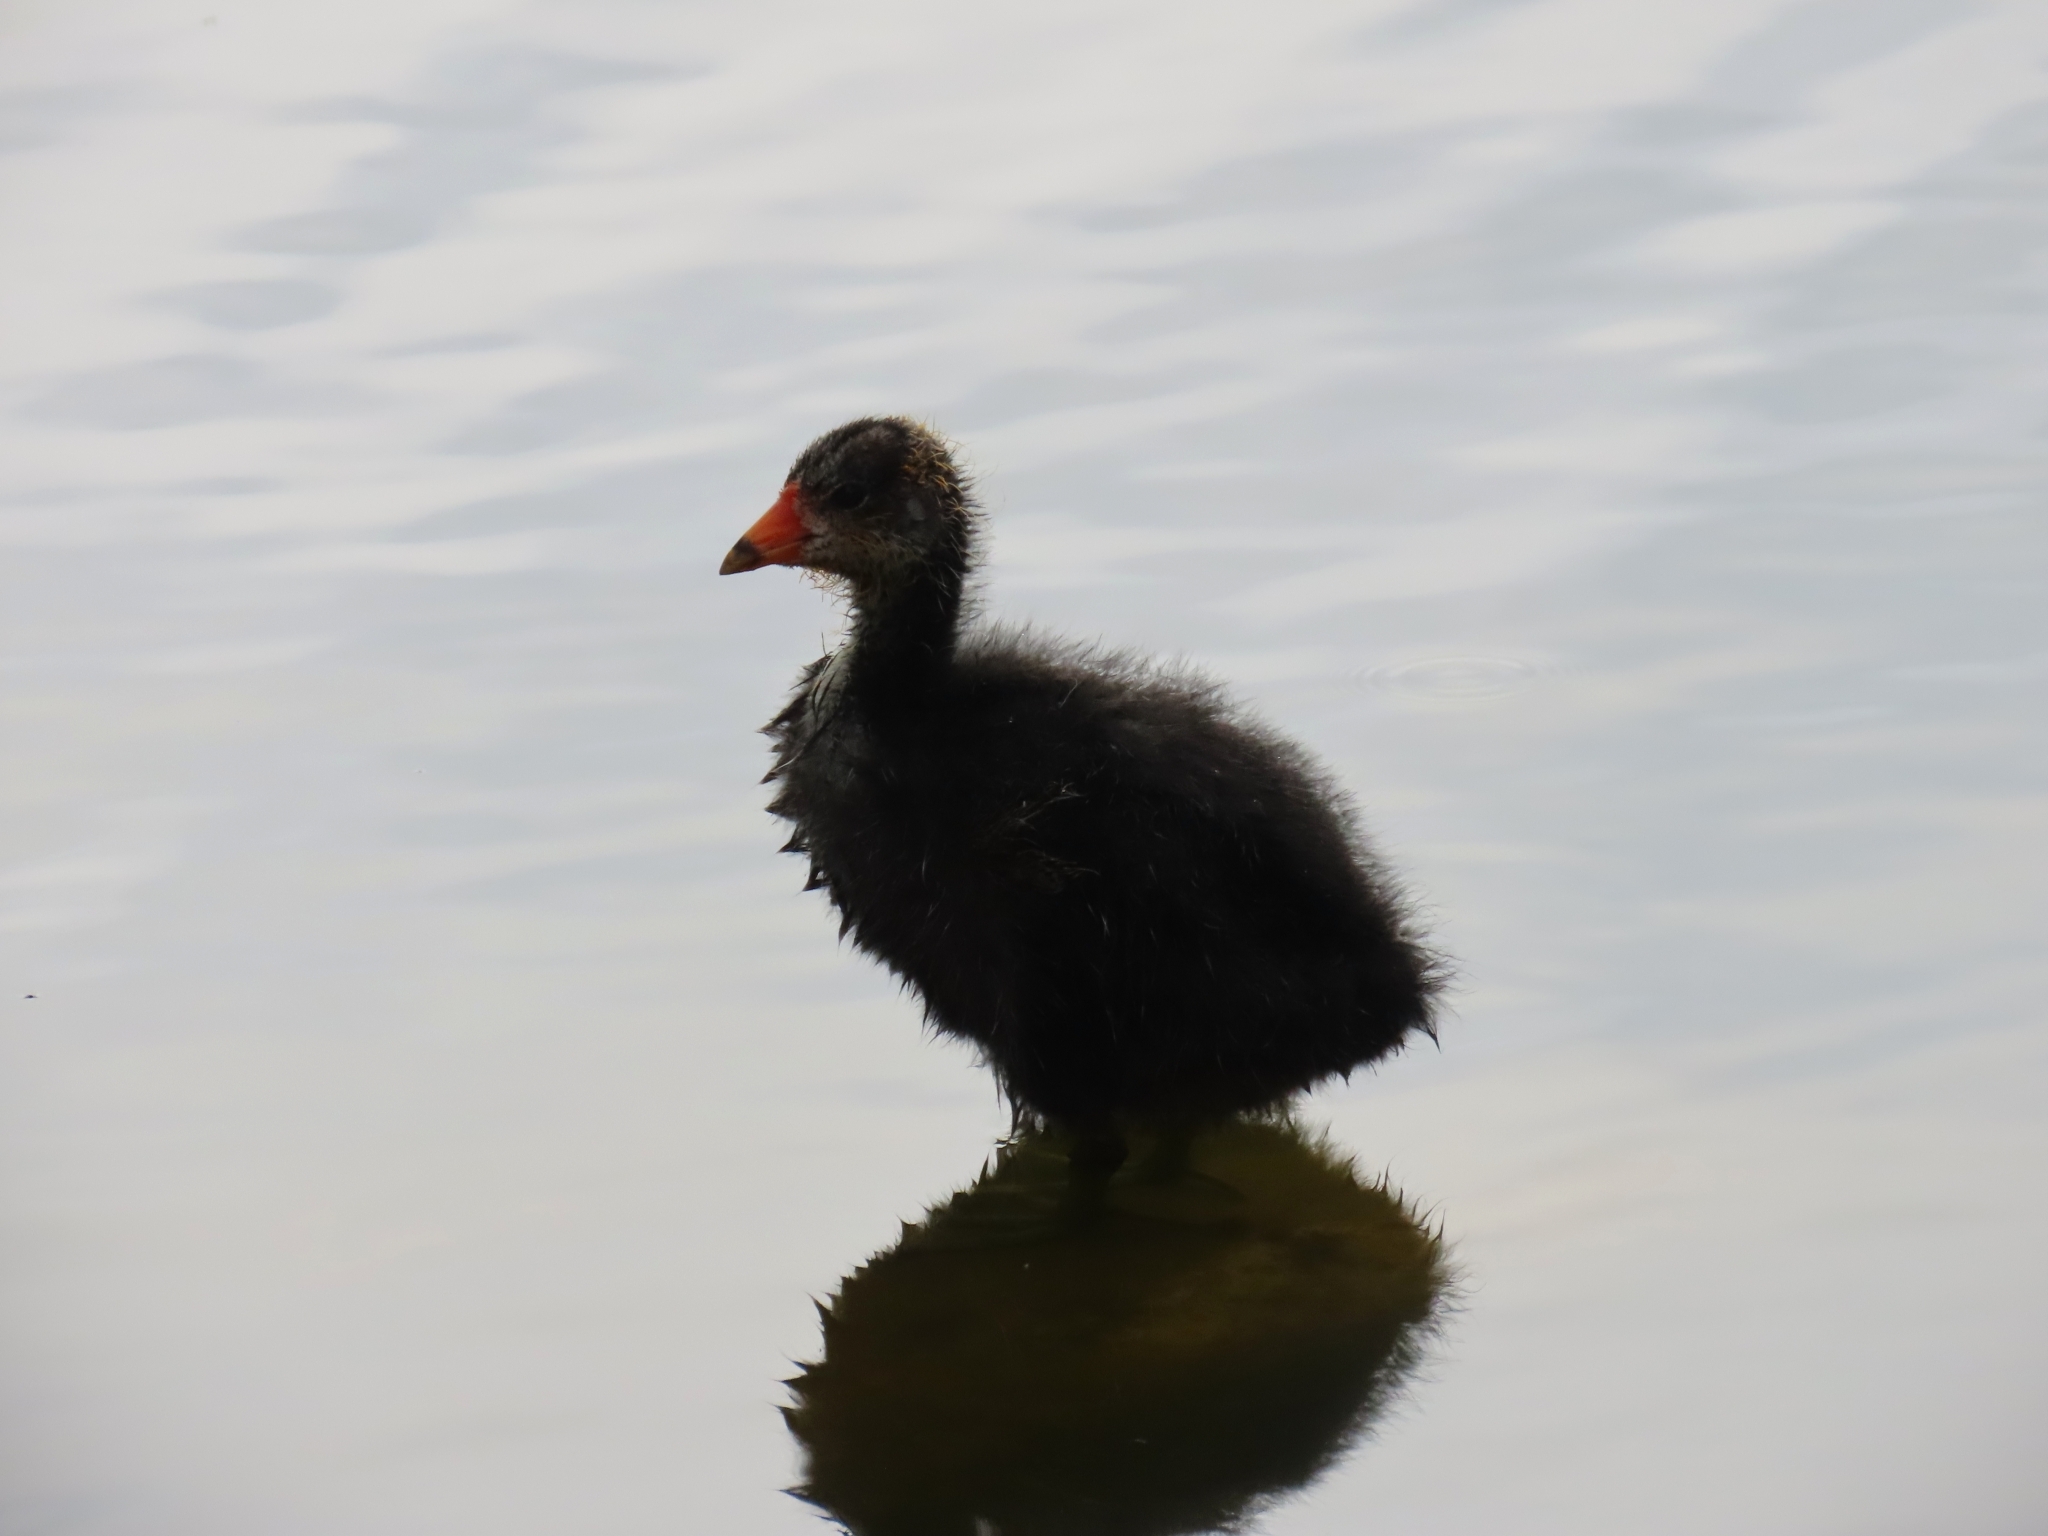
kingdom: Animalia
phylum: Chordata
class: Aves
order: Gruiformes
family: Rallidae
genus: Fulica
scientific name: Fulica americana
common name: American coot
